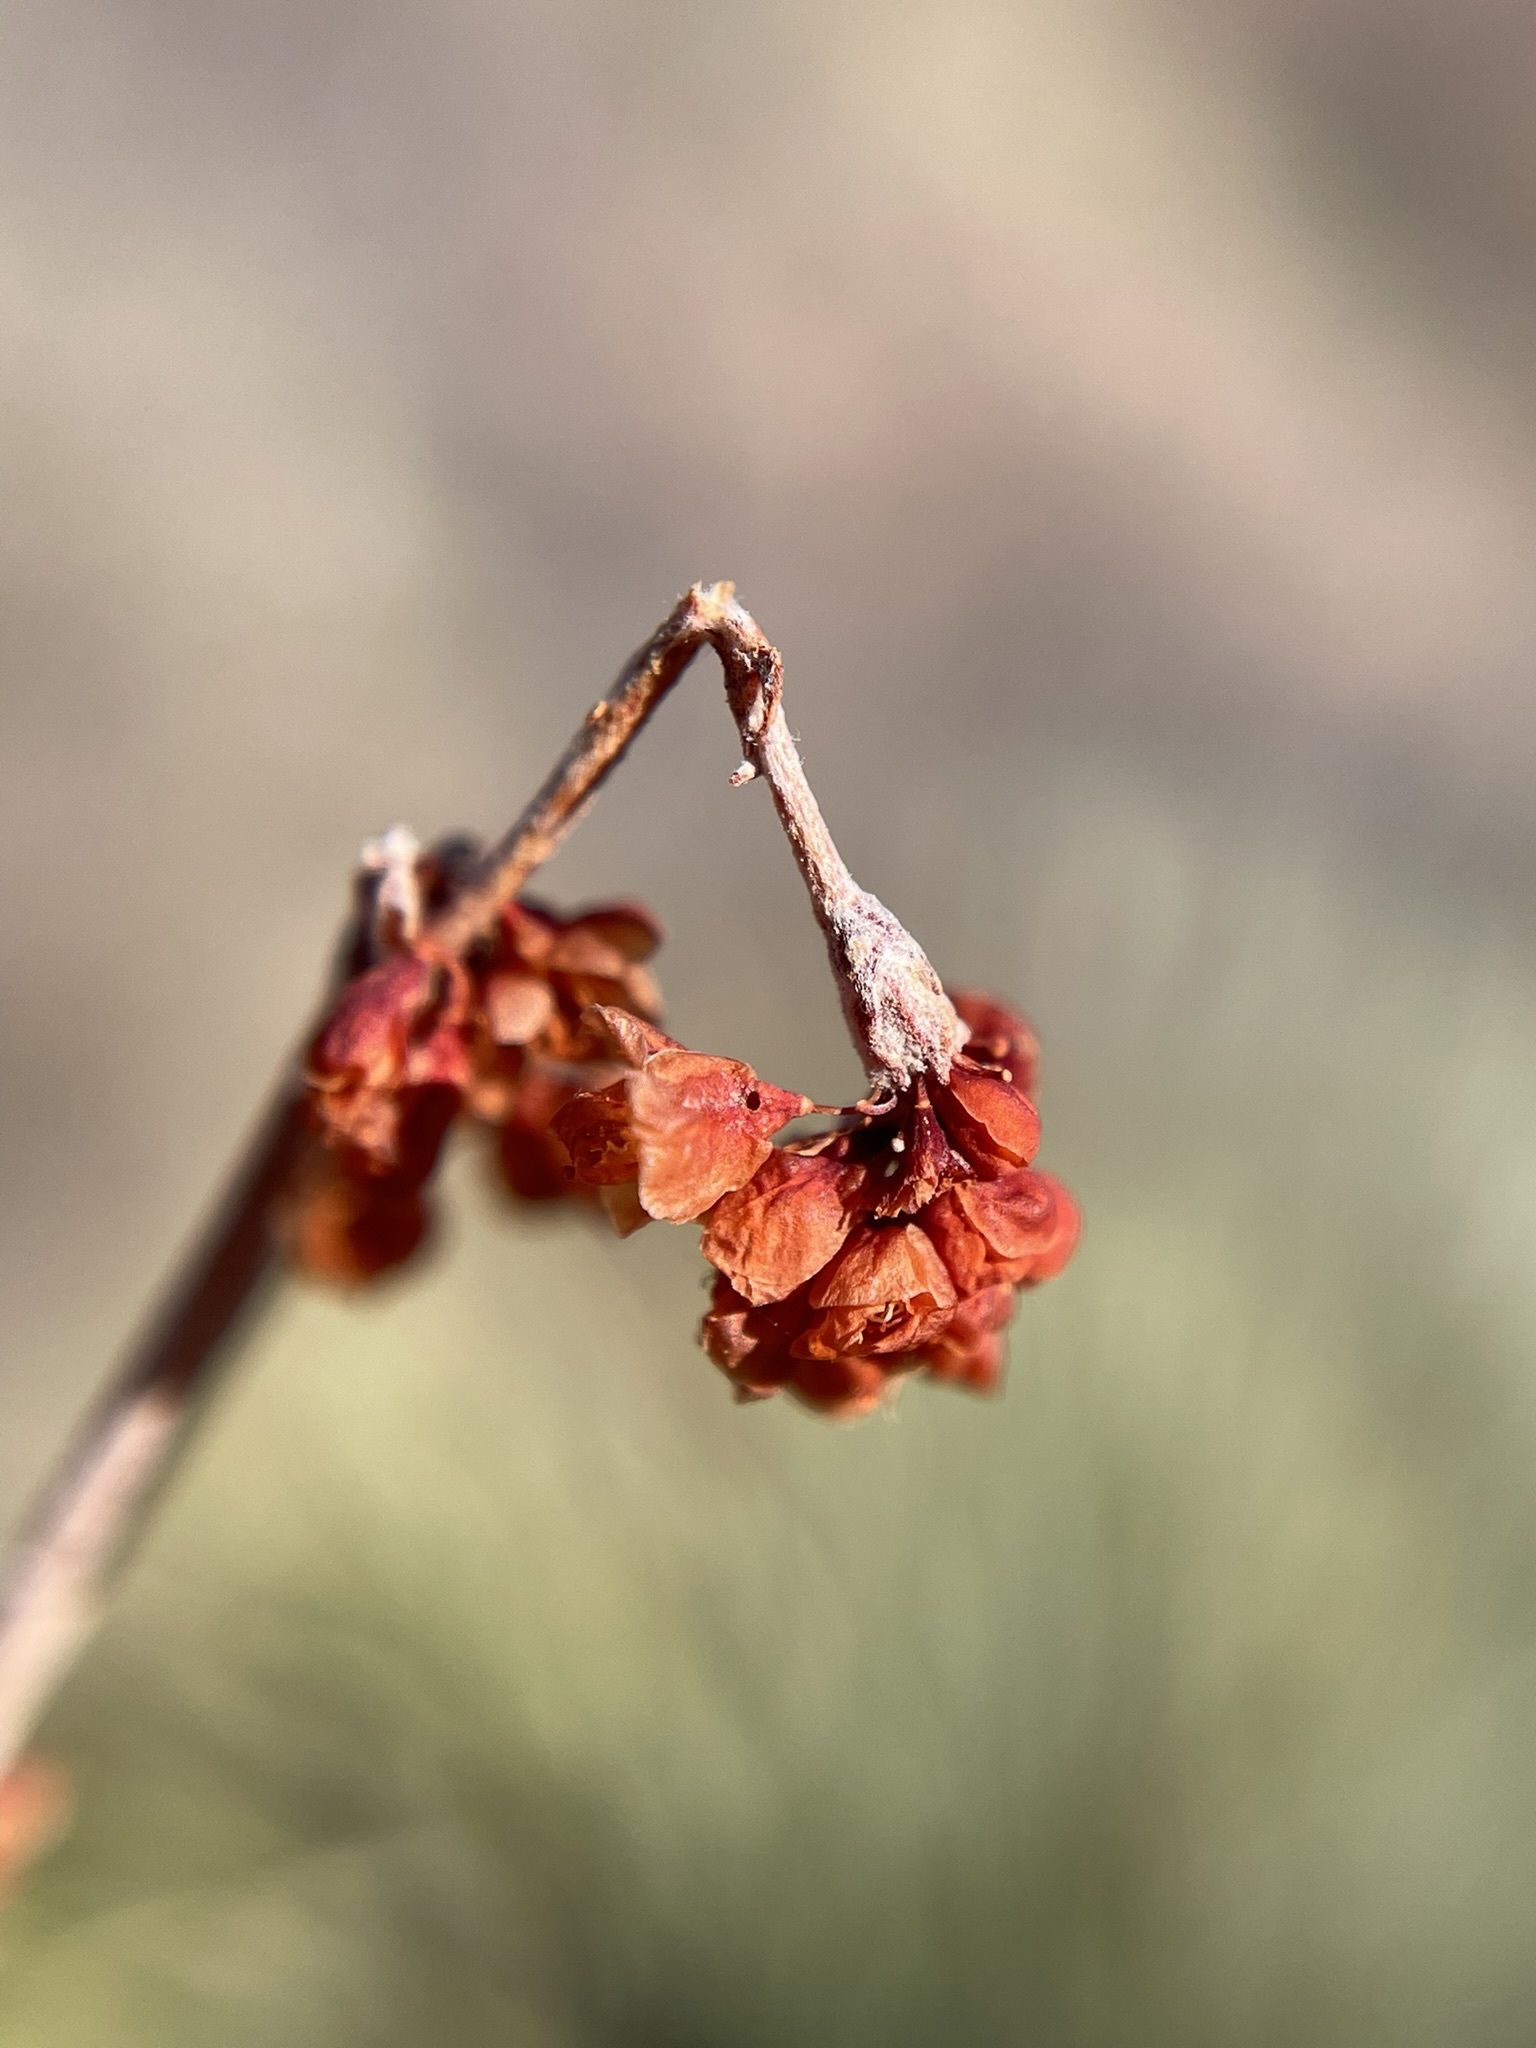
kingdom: Plantae
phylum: Tracheophyta
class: Magnoliopsida
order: Caryophyllales
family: Polygonaceae
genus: Eriogonum
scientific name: Eriogonum wrightii
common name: Bastard-sage
